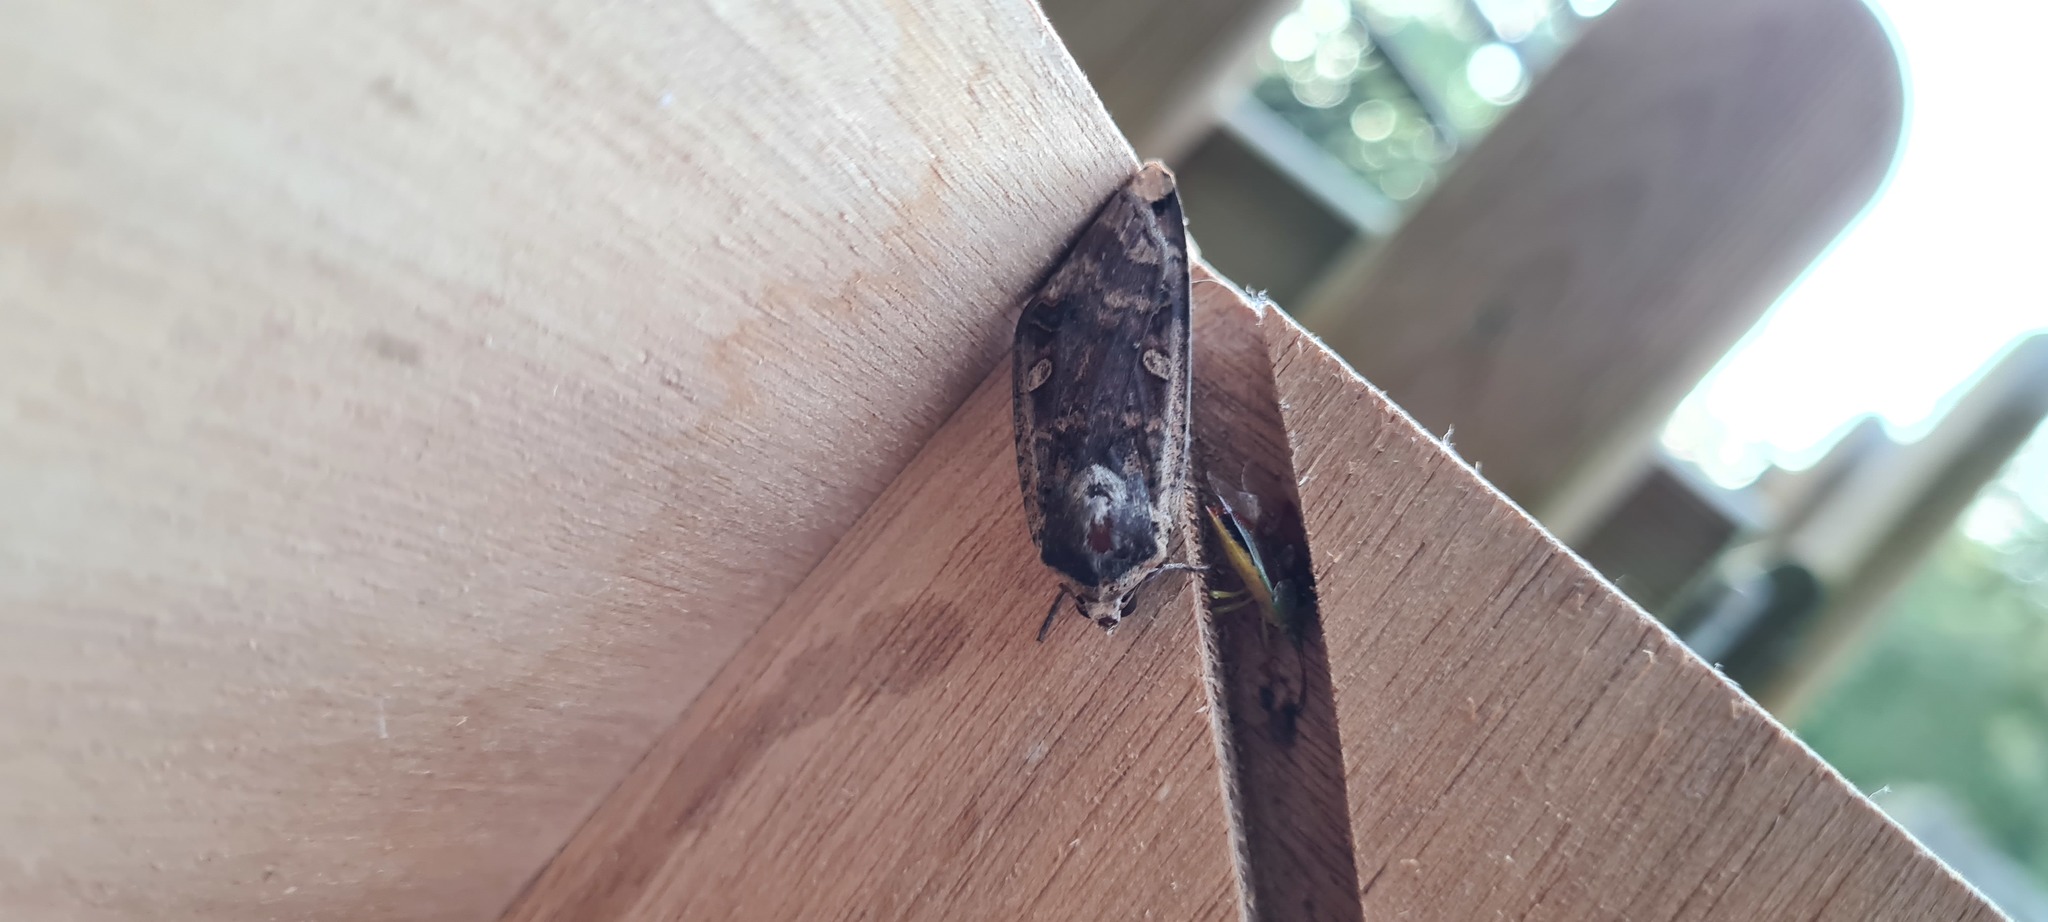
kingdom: Animalia
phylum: Arthropoda
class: Insecta
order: Lepidoptera
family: Noctuidae
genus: Noctua
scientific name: Noctua pronuba
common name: Large yellow underwing
